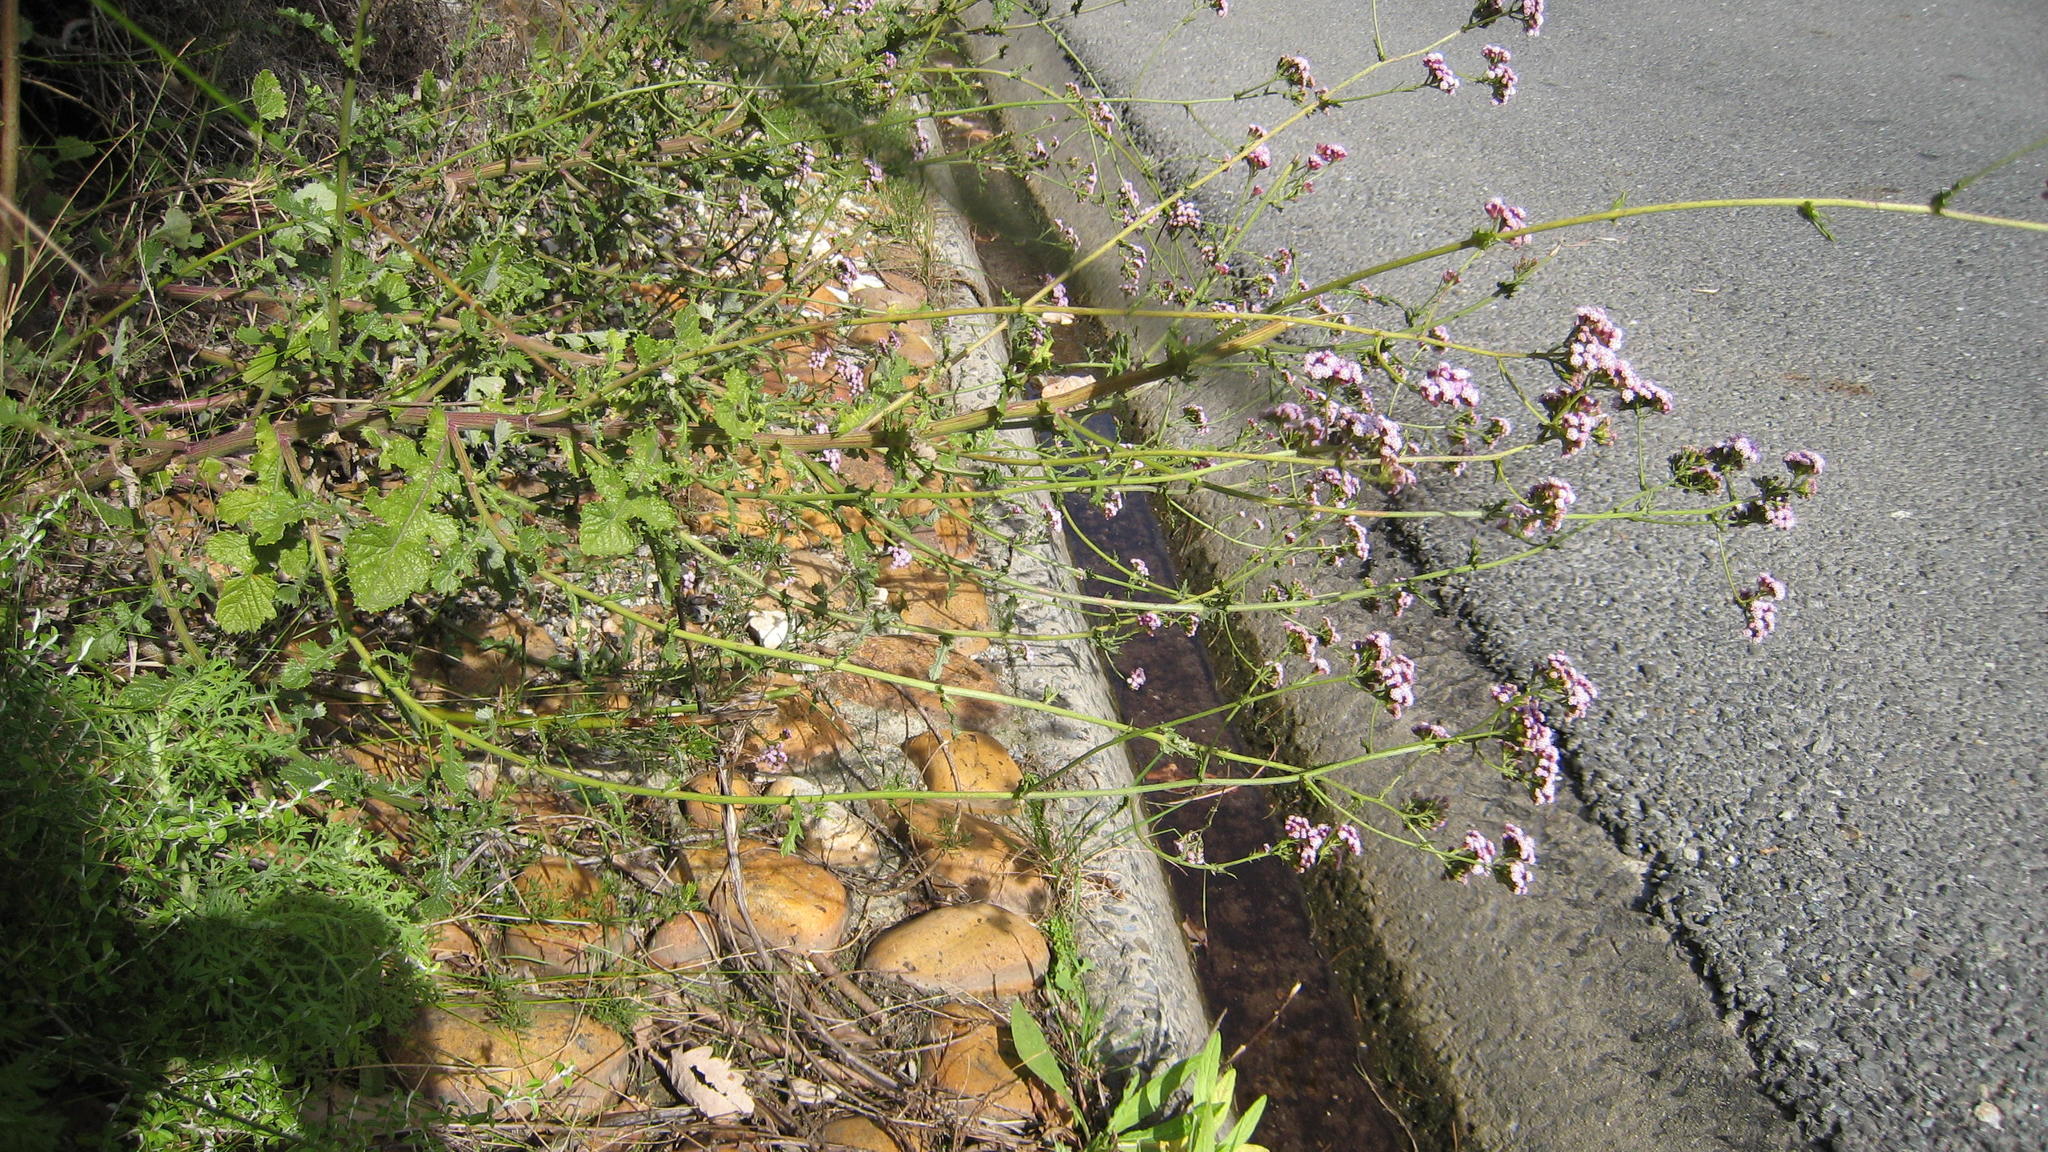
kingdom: Plantae
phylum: Tracheophyta
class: Magnoliopsida
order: Asterales
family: Asteraceae
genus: Senecio
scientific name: Senecio agapetes
